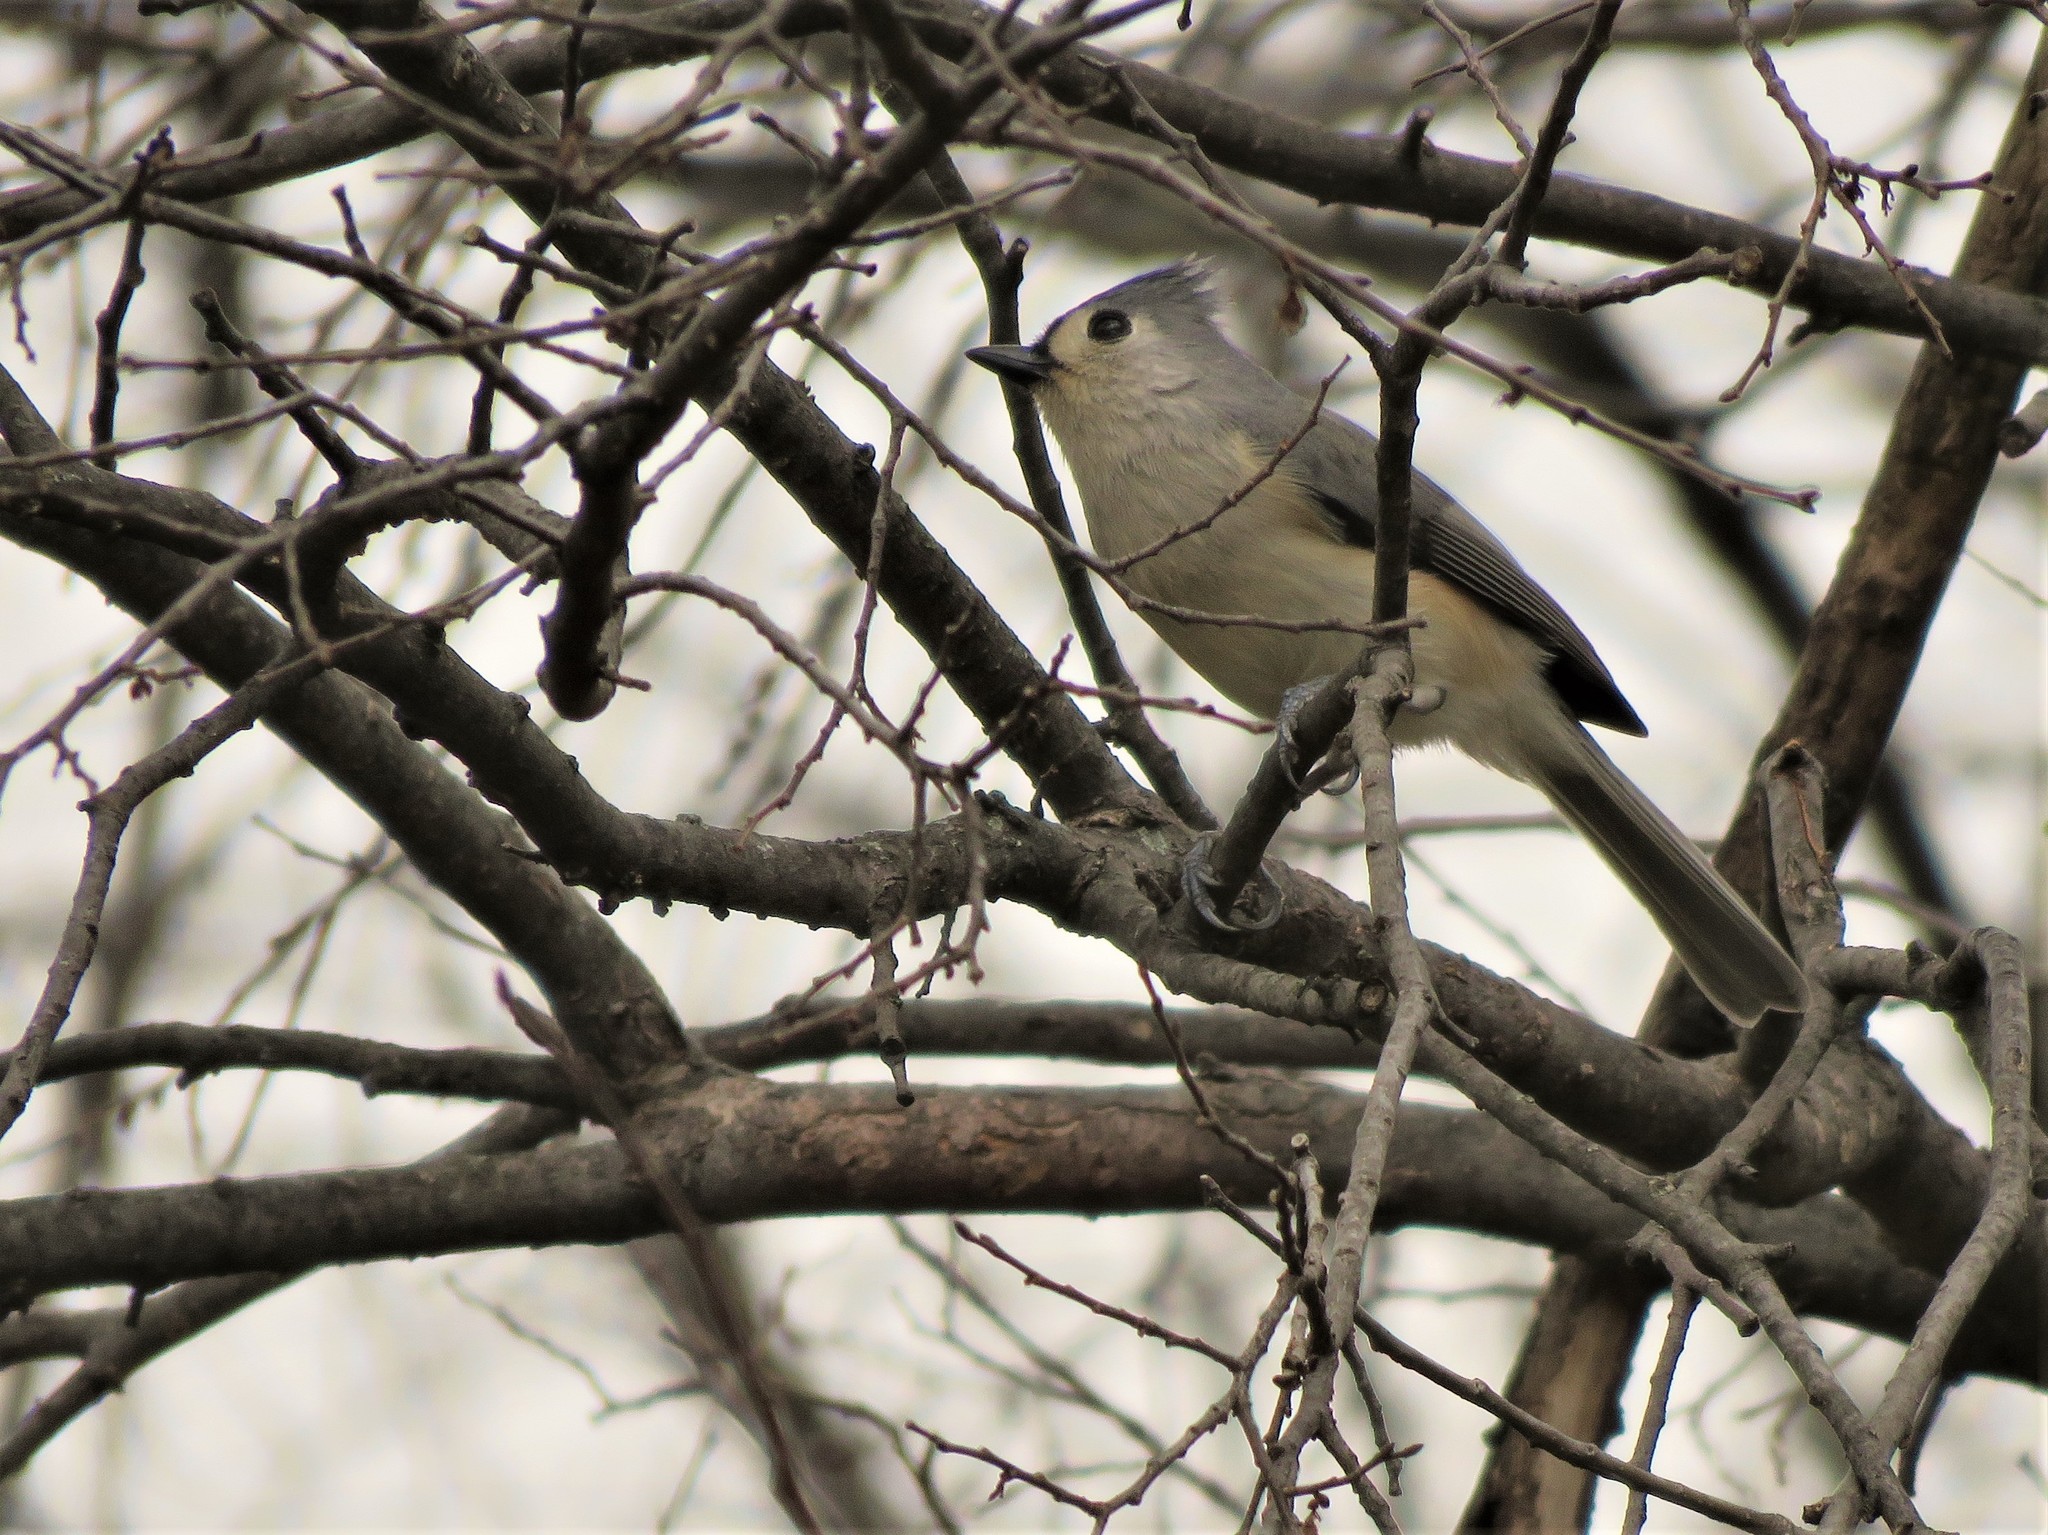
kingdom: Animalia
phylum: Chordata
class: Aves
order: Passeriformes
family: Paridae
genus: Baeolophus
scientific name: Baeolophus bicolor
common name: Tufted titmouse
